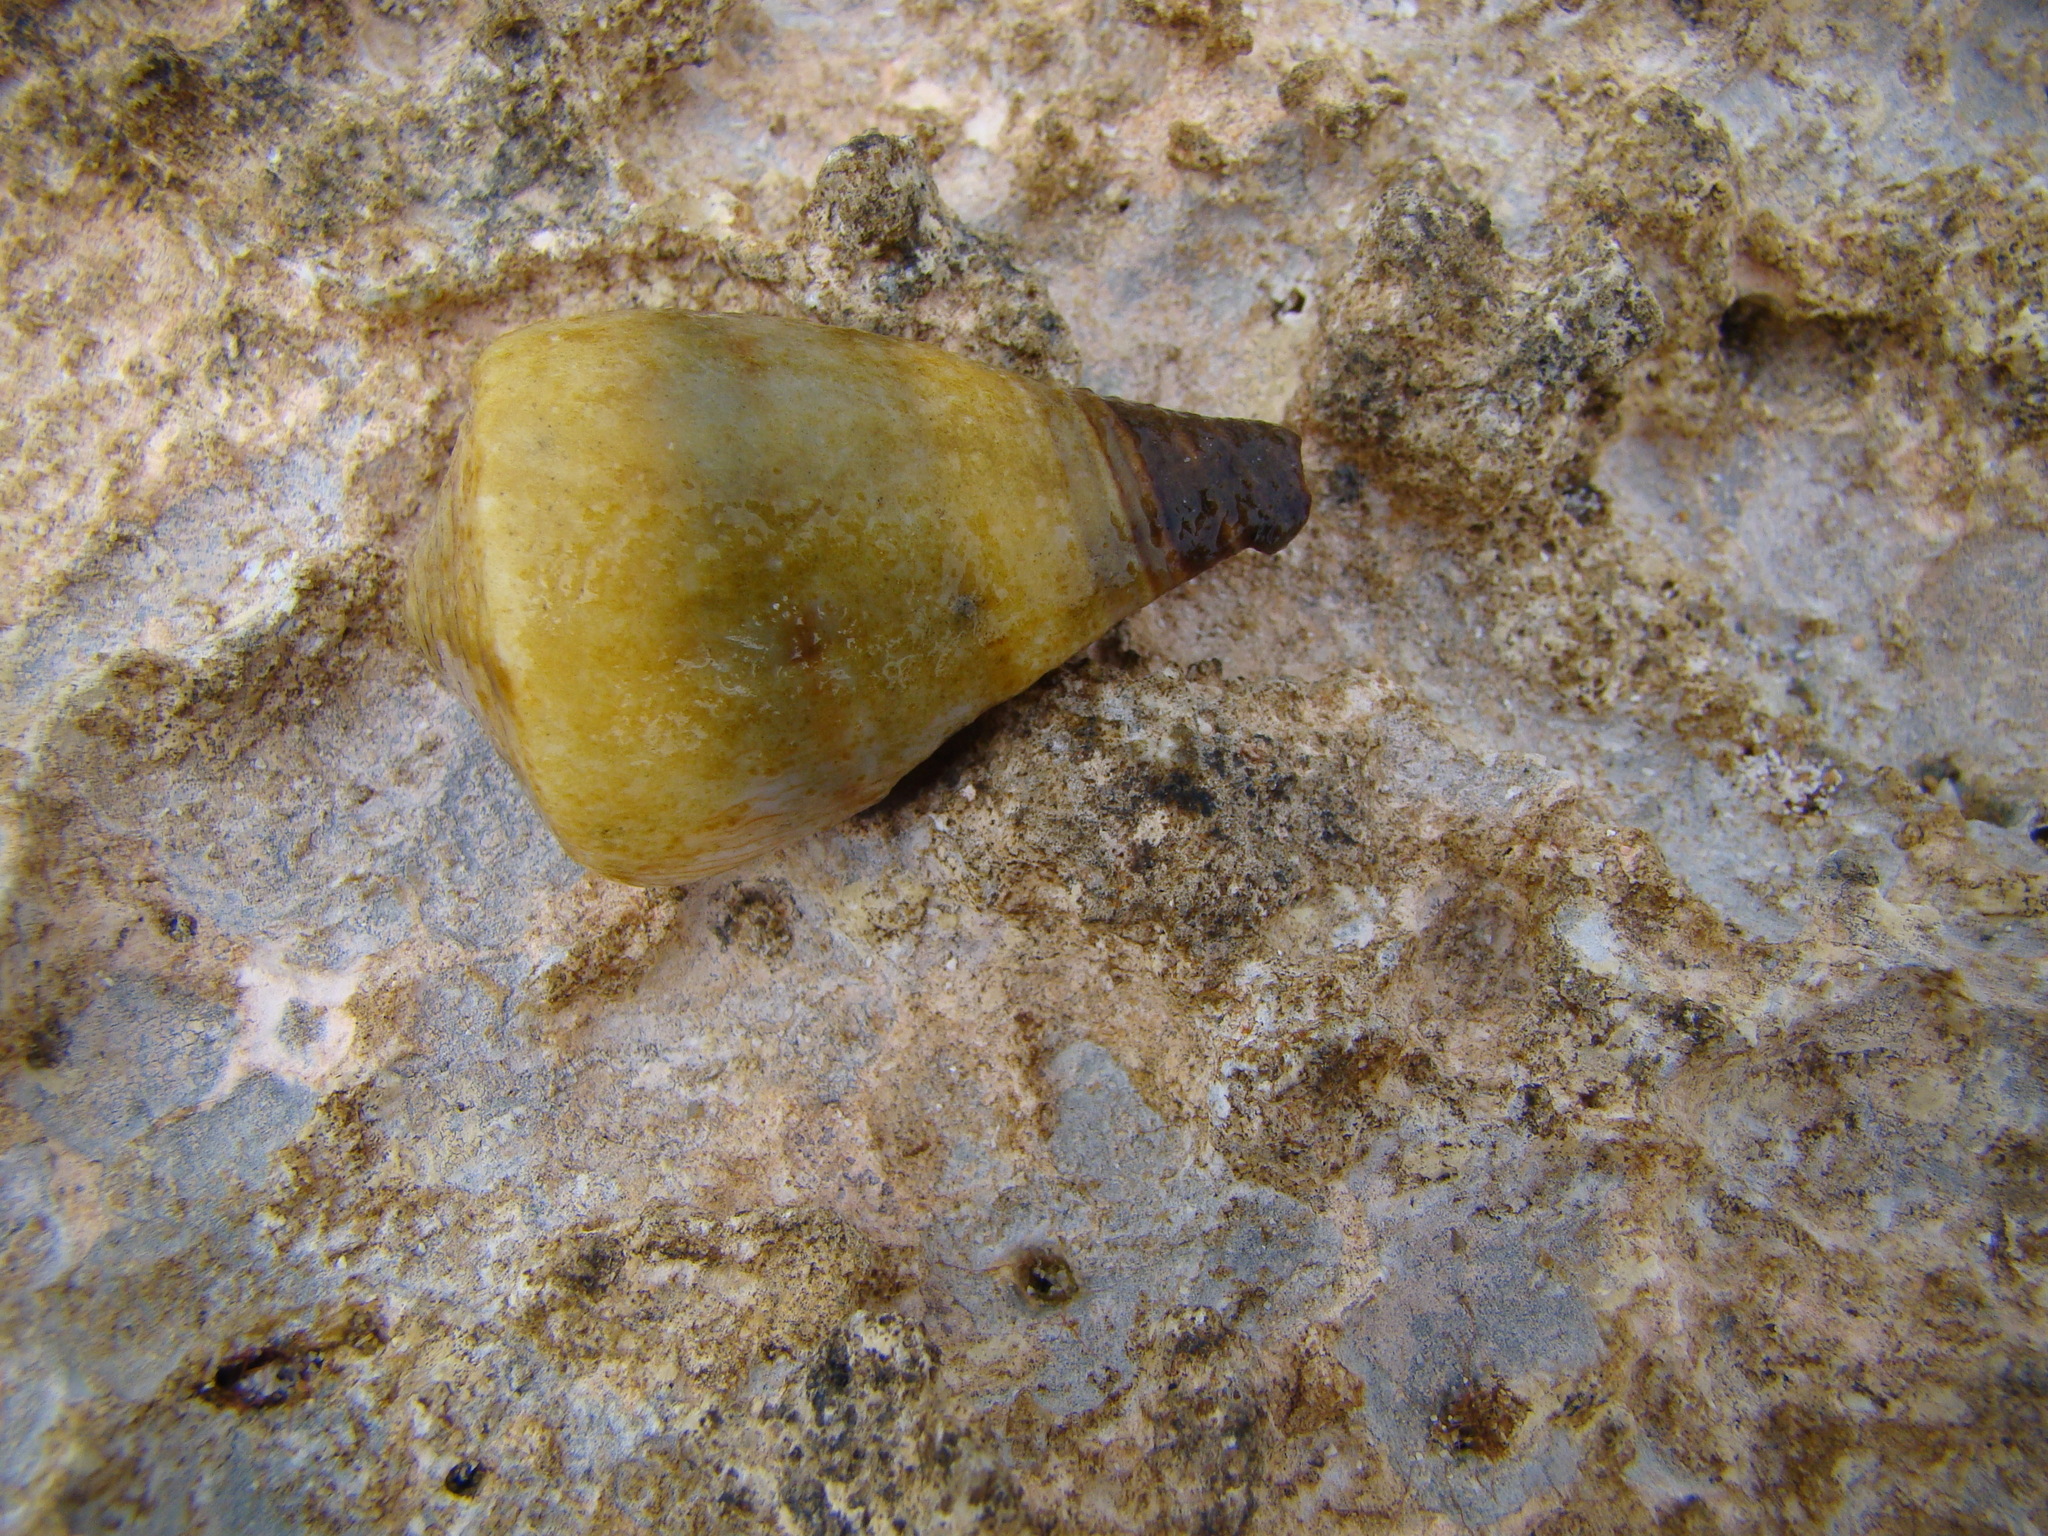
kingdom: Animalia
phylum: Mollusca
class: Gastropoda
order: Neogastropoda
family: Conidae
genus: Conus
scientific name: Conus miles
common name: Soldier cone
